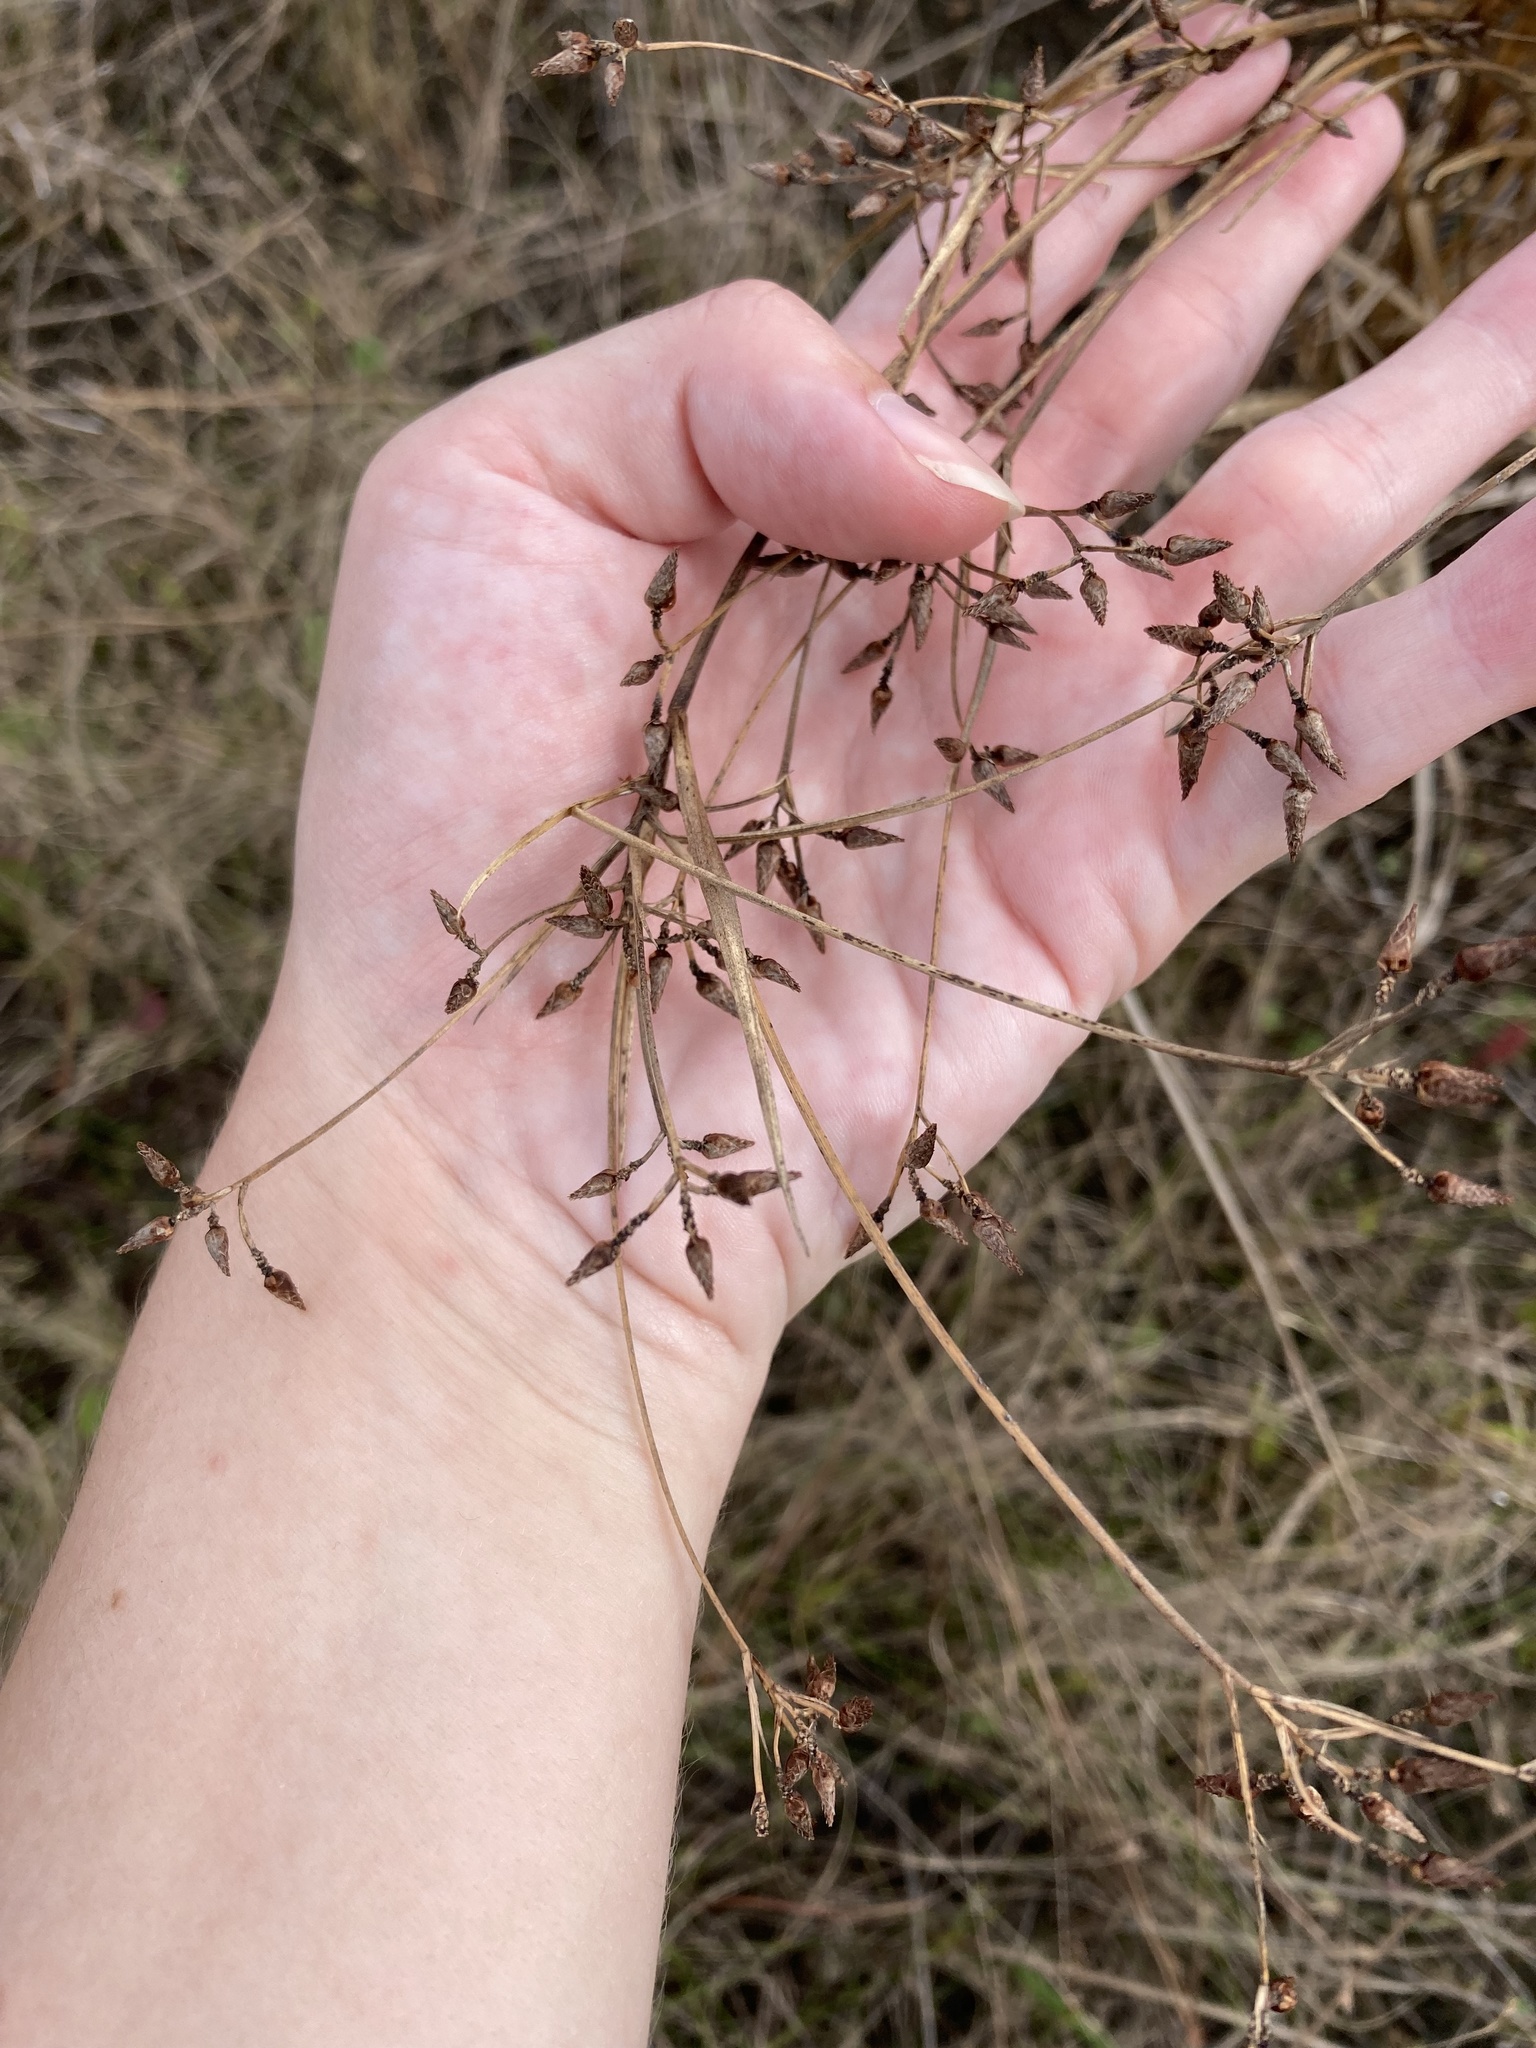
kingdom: Plantae
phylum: Tracheophyta
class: Liliopsida
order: Poales
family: Cyperaceae
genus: Rhynchospora
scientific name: Rhynchospora nitens
